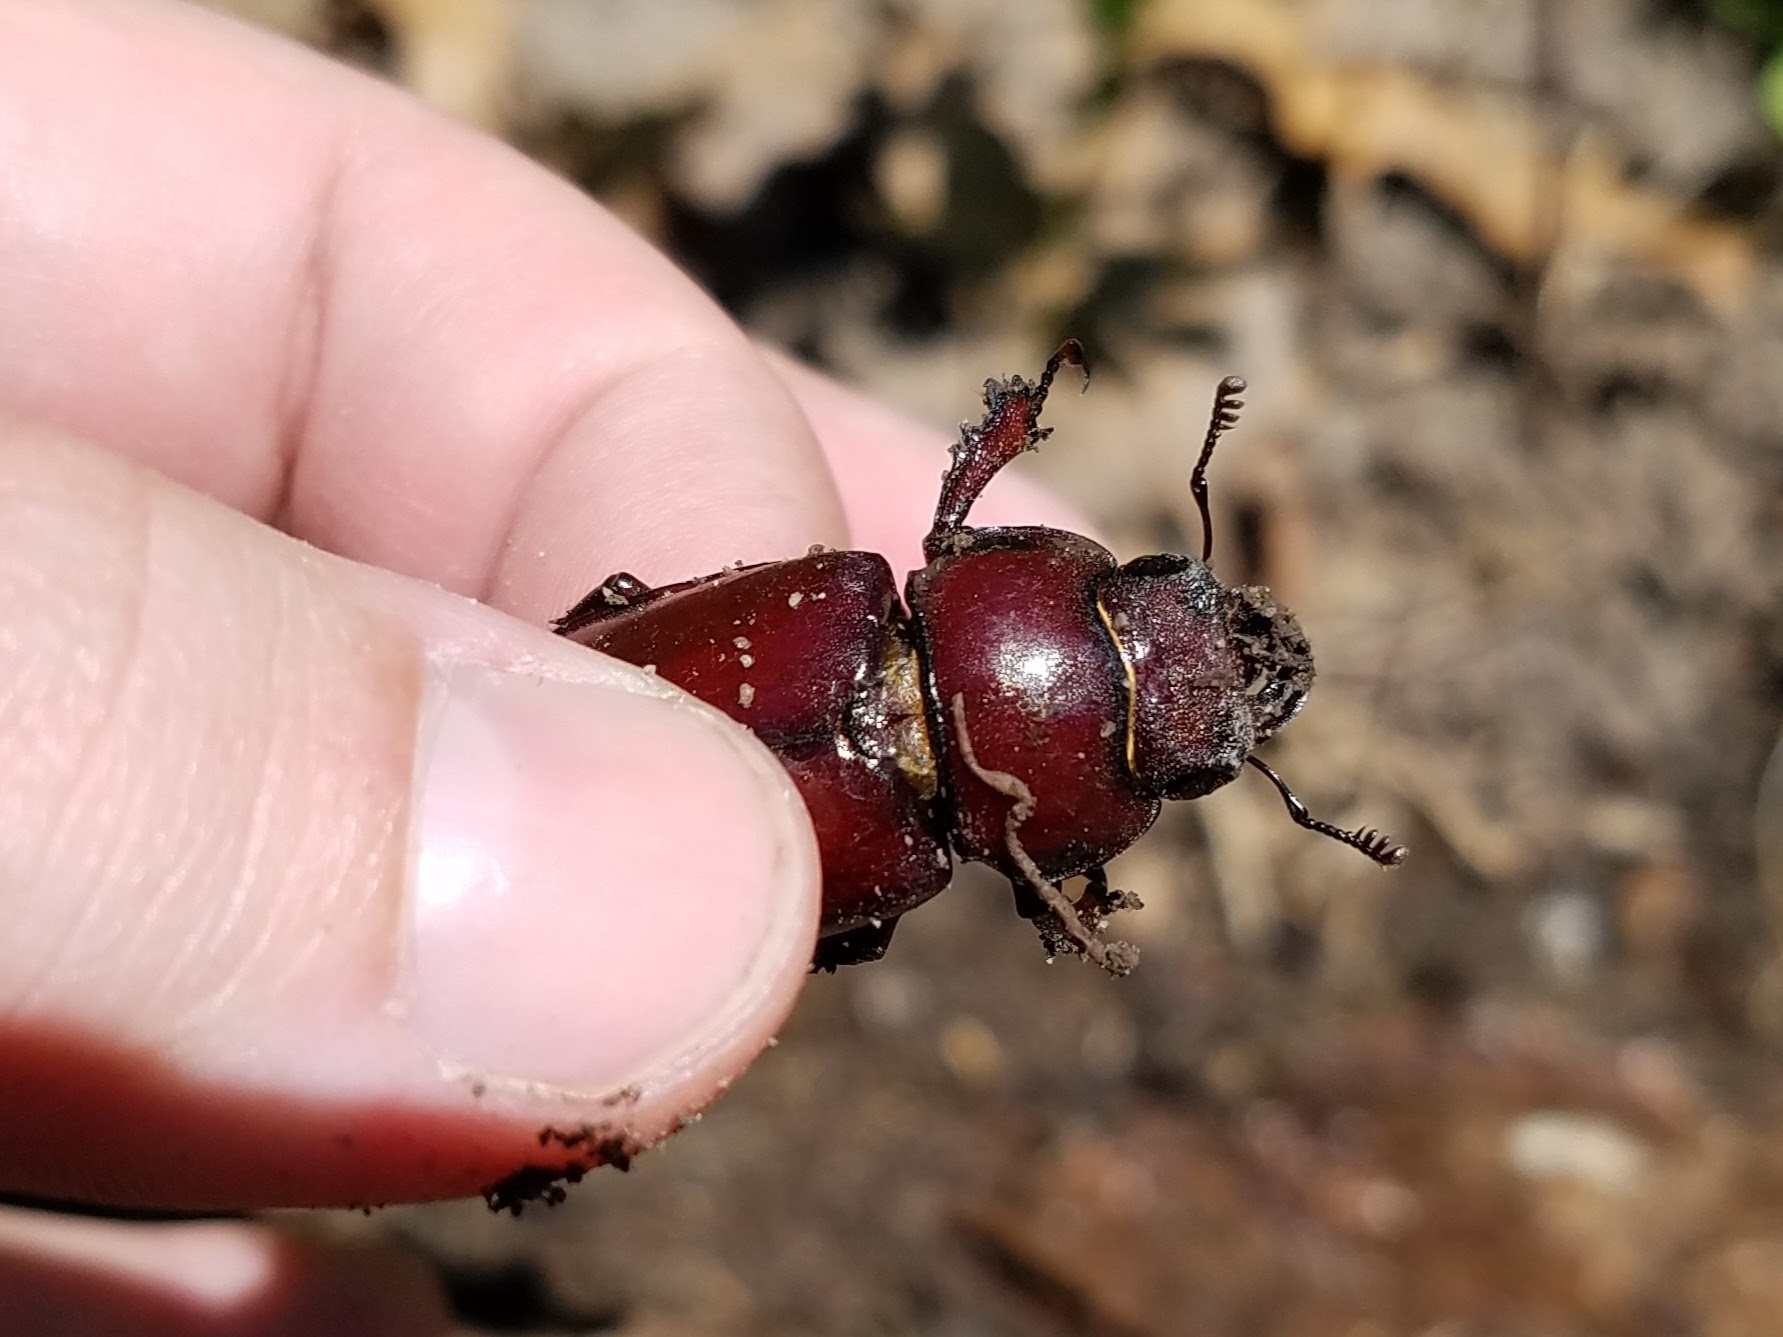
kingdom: Animalia
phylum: Arthropoda
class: Insecta
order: Coleoptera
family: Lucanidae
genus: Lucanus
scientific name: Lucanus capreolus
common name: Stag beetle
